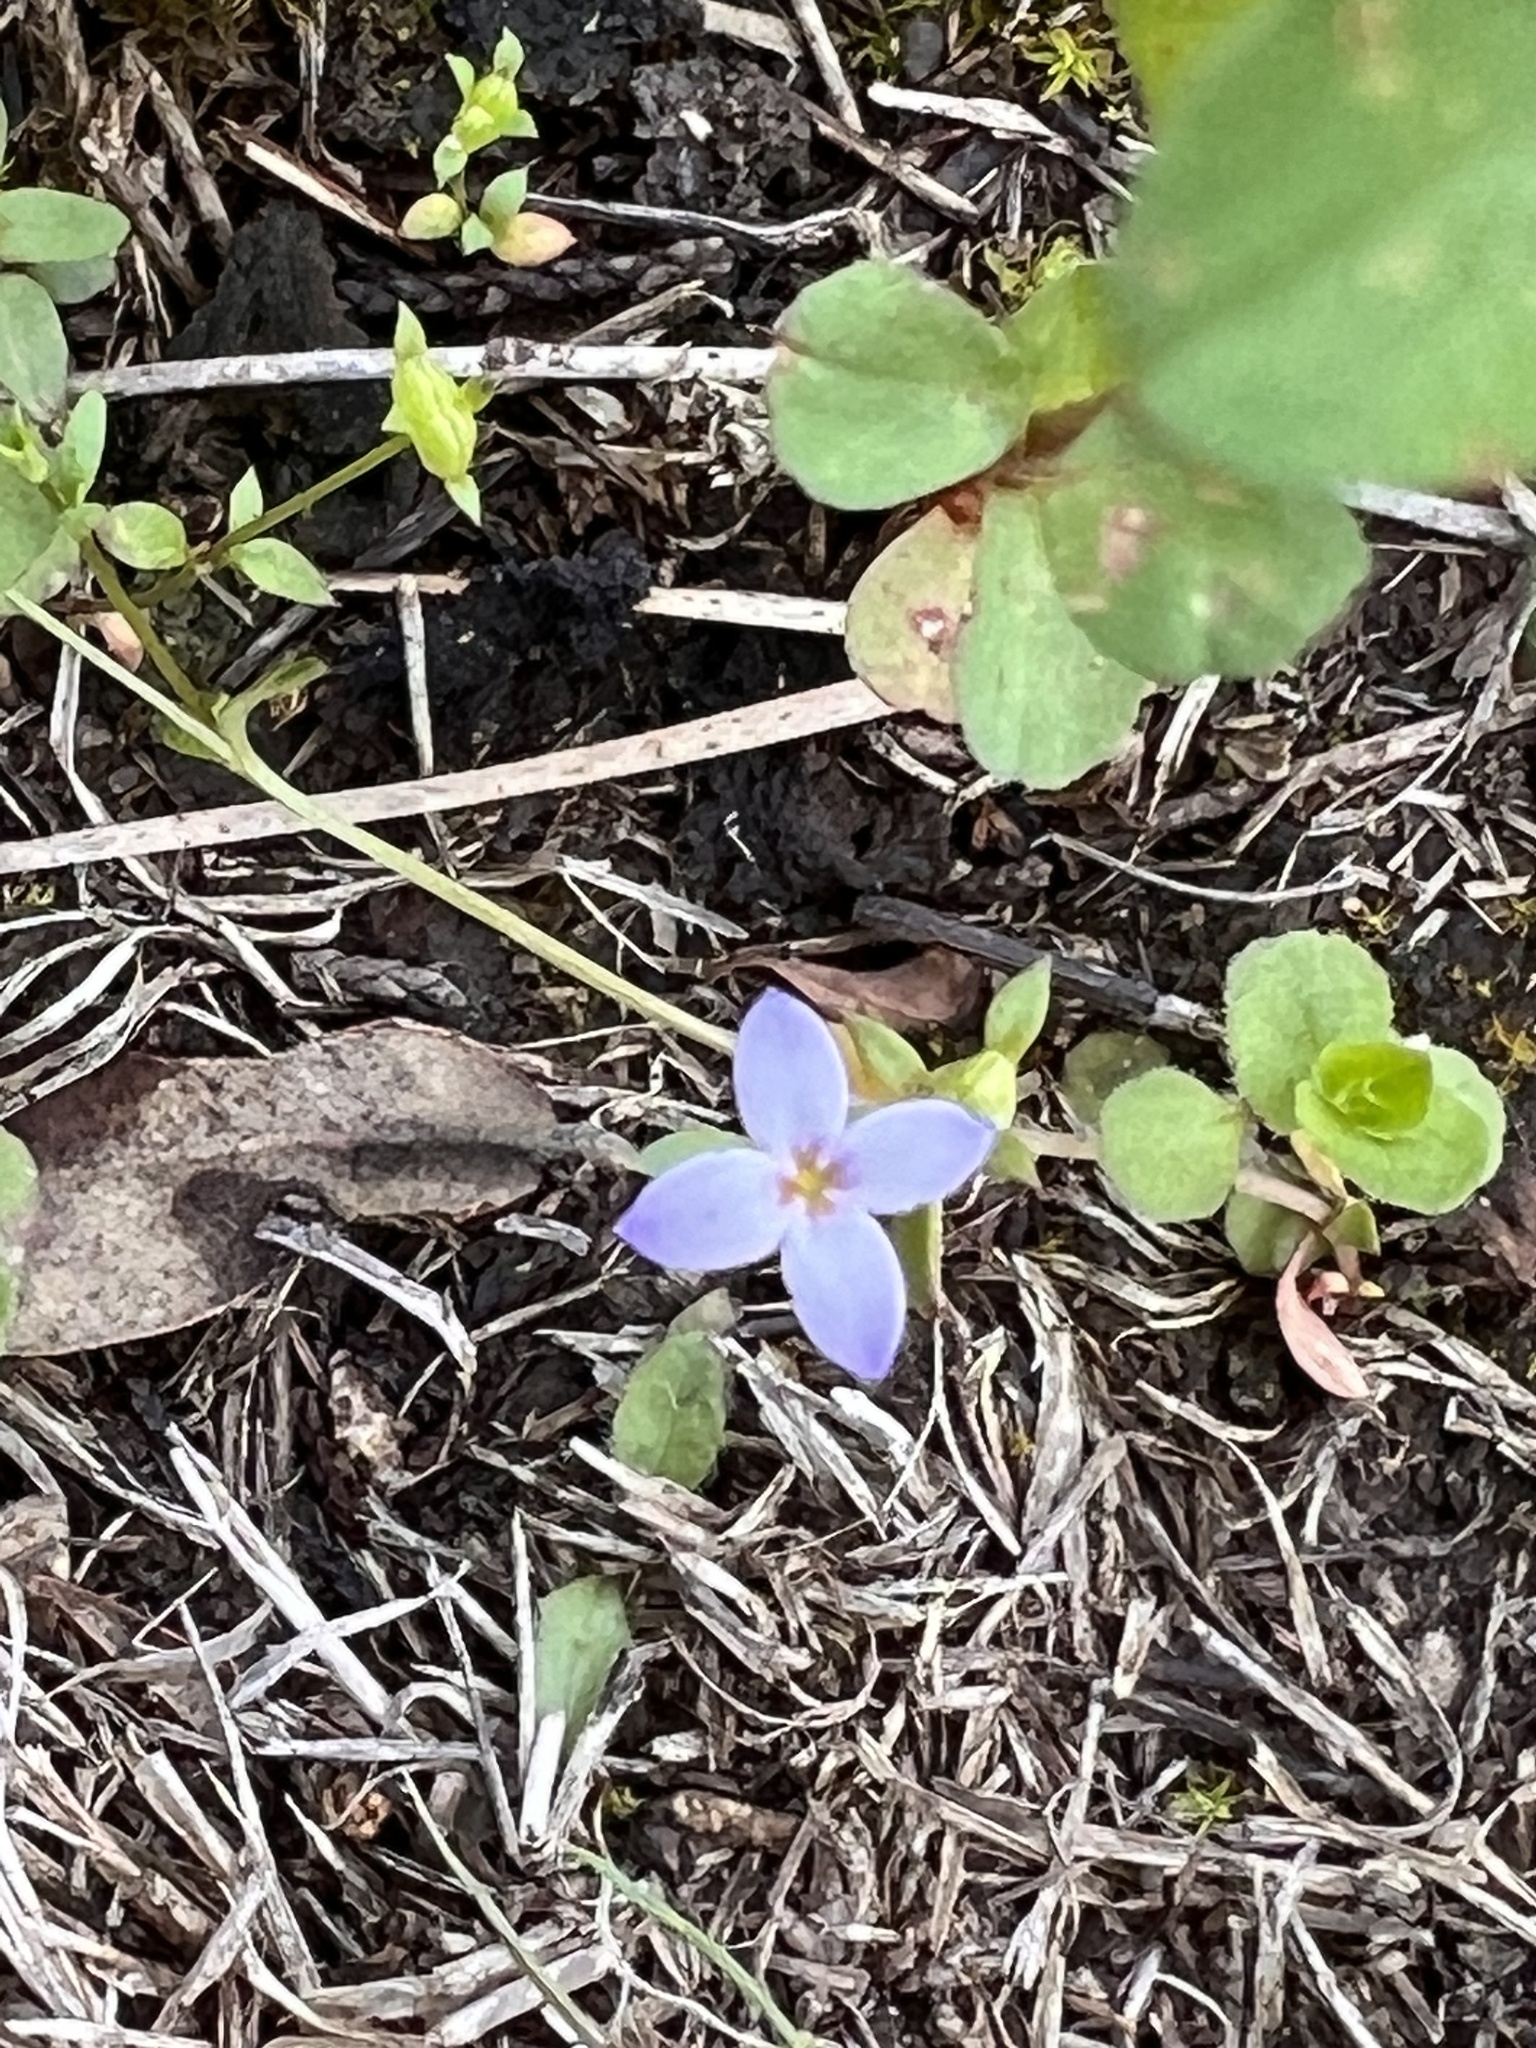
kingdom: Plantae
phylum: Tracheophyta
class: Magnoliopsida
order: Gentianales
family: Rubiaceae
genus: Houstonia
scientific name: Houstonia pusilla
